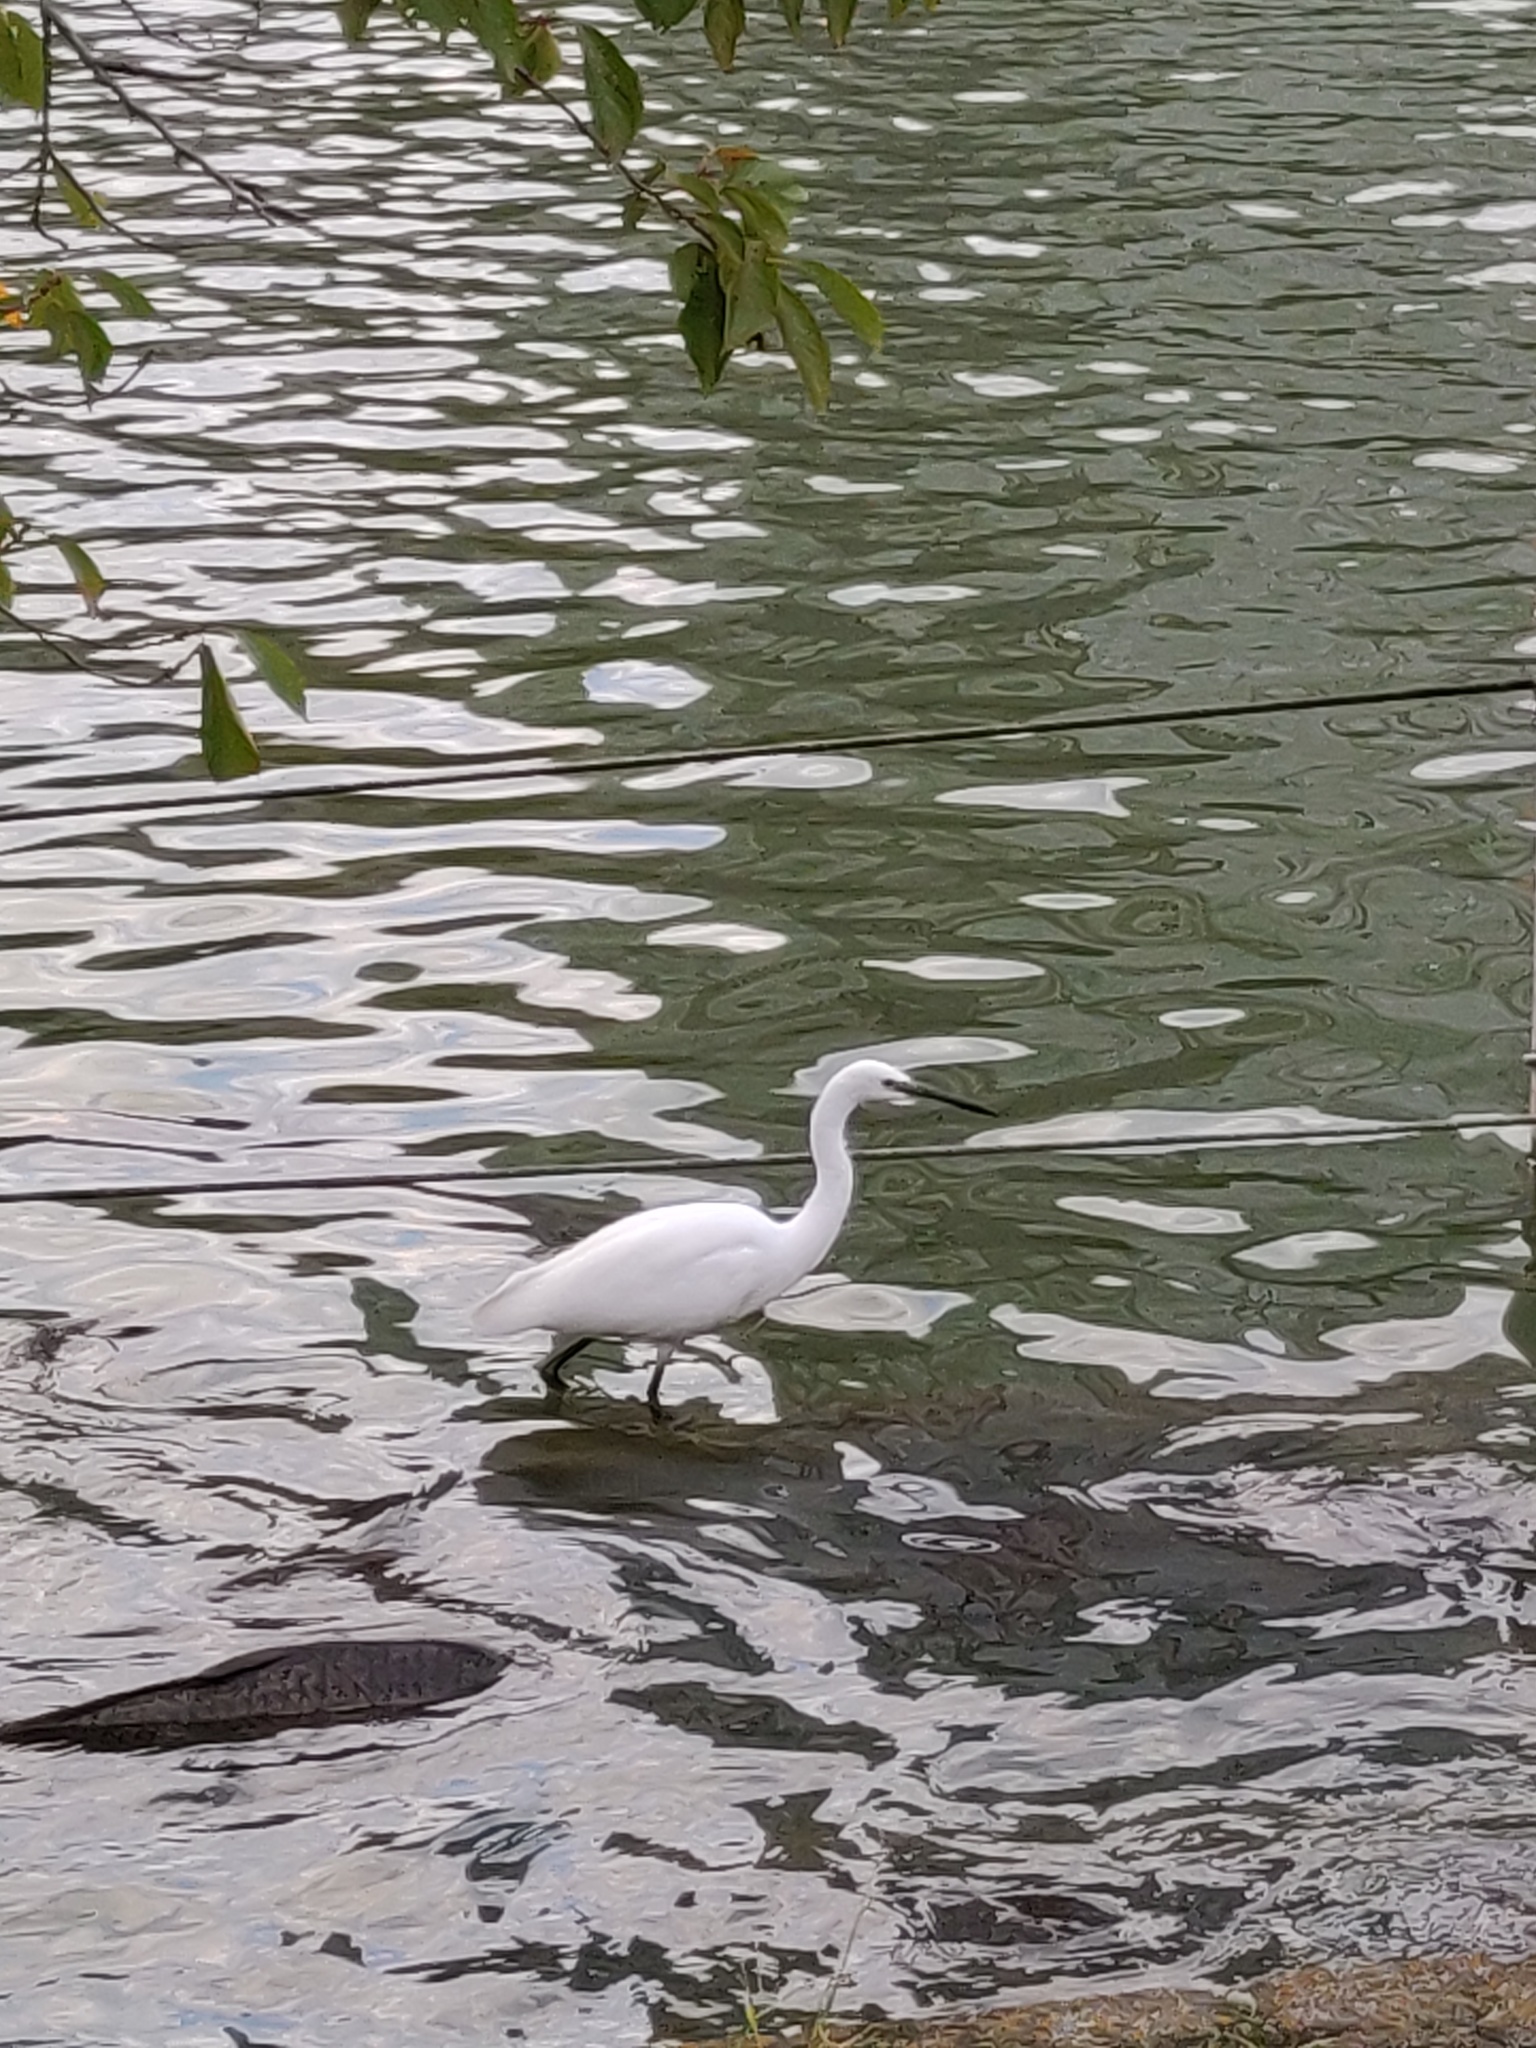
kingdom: Animalia
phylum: Chordata
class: Aves
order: Pelecaniformes
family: Ardeidae
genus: Egretta
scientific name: Egretta garzetta
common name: Little egret
